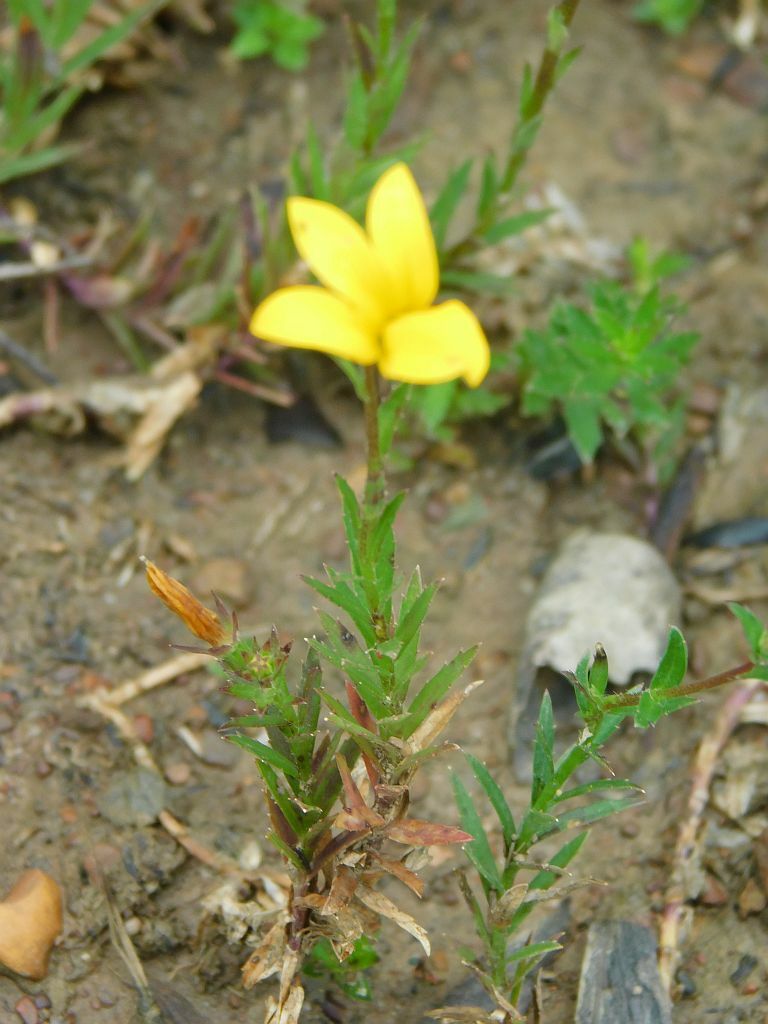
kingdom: Plantae
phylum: Tracheophyta
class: Magnoliopsida
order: Asterales
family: Campanulaceae
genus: Monopsis
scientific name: Monopsis lutea
